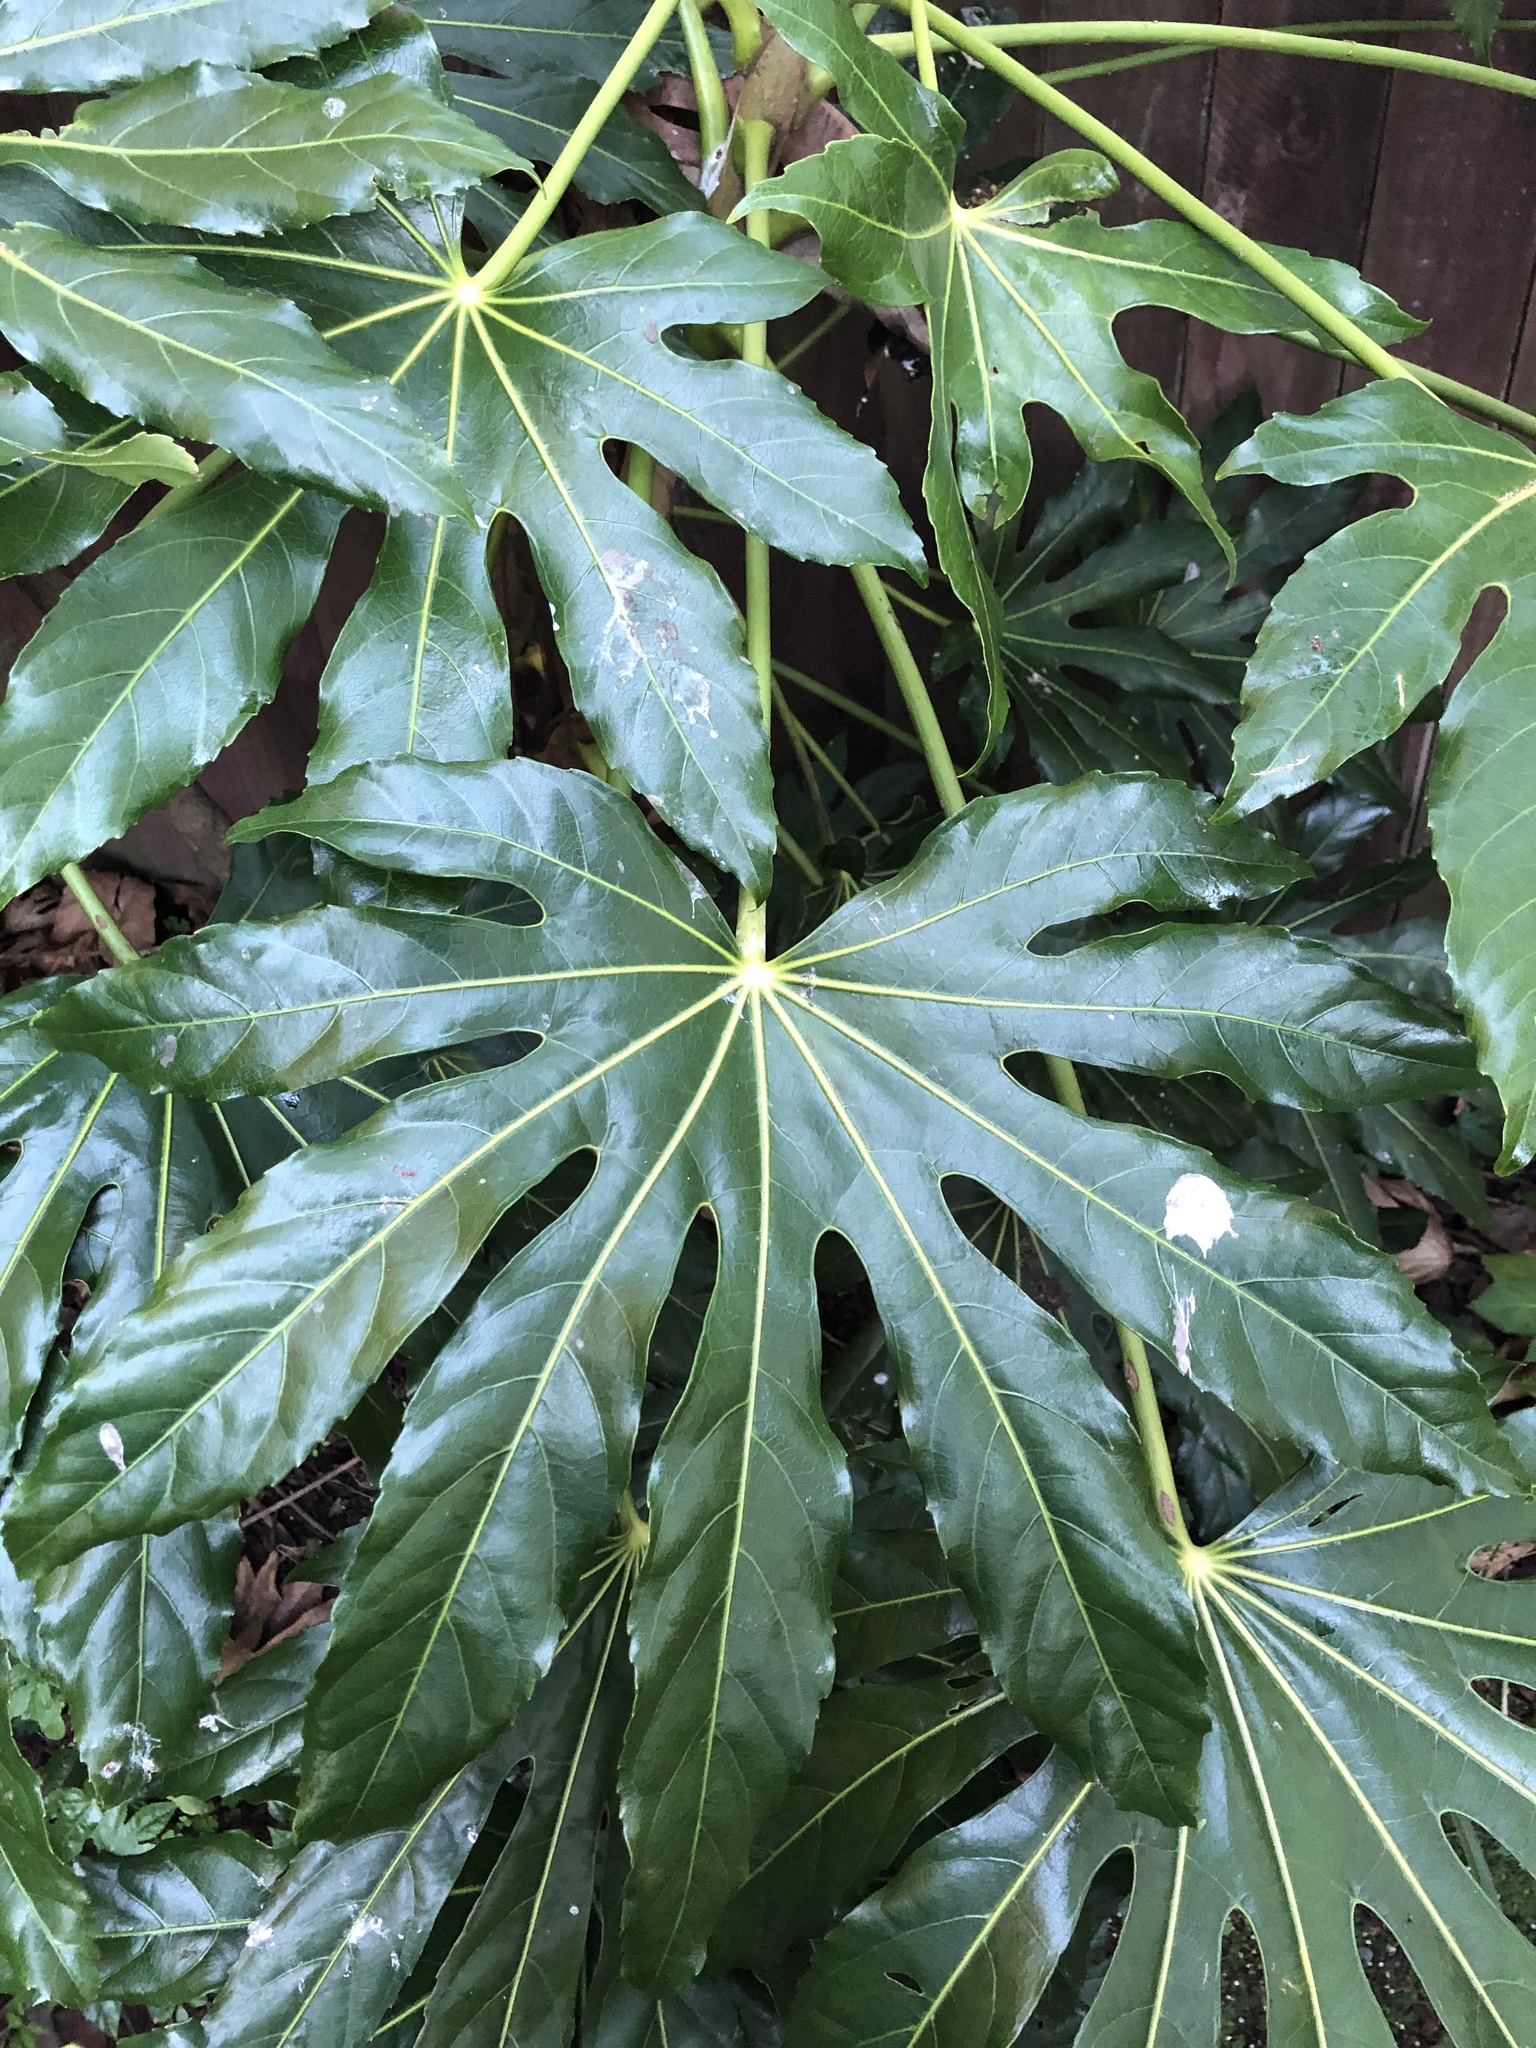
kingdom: Plantae
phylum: Tracheophyta
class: Magnoliopsida
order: Apiales
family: Araliaceae
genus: Fatsia
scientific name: Fatsia japonica
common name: Fatsia
